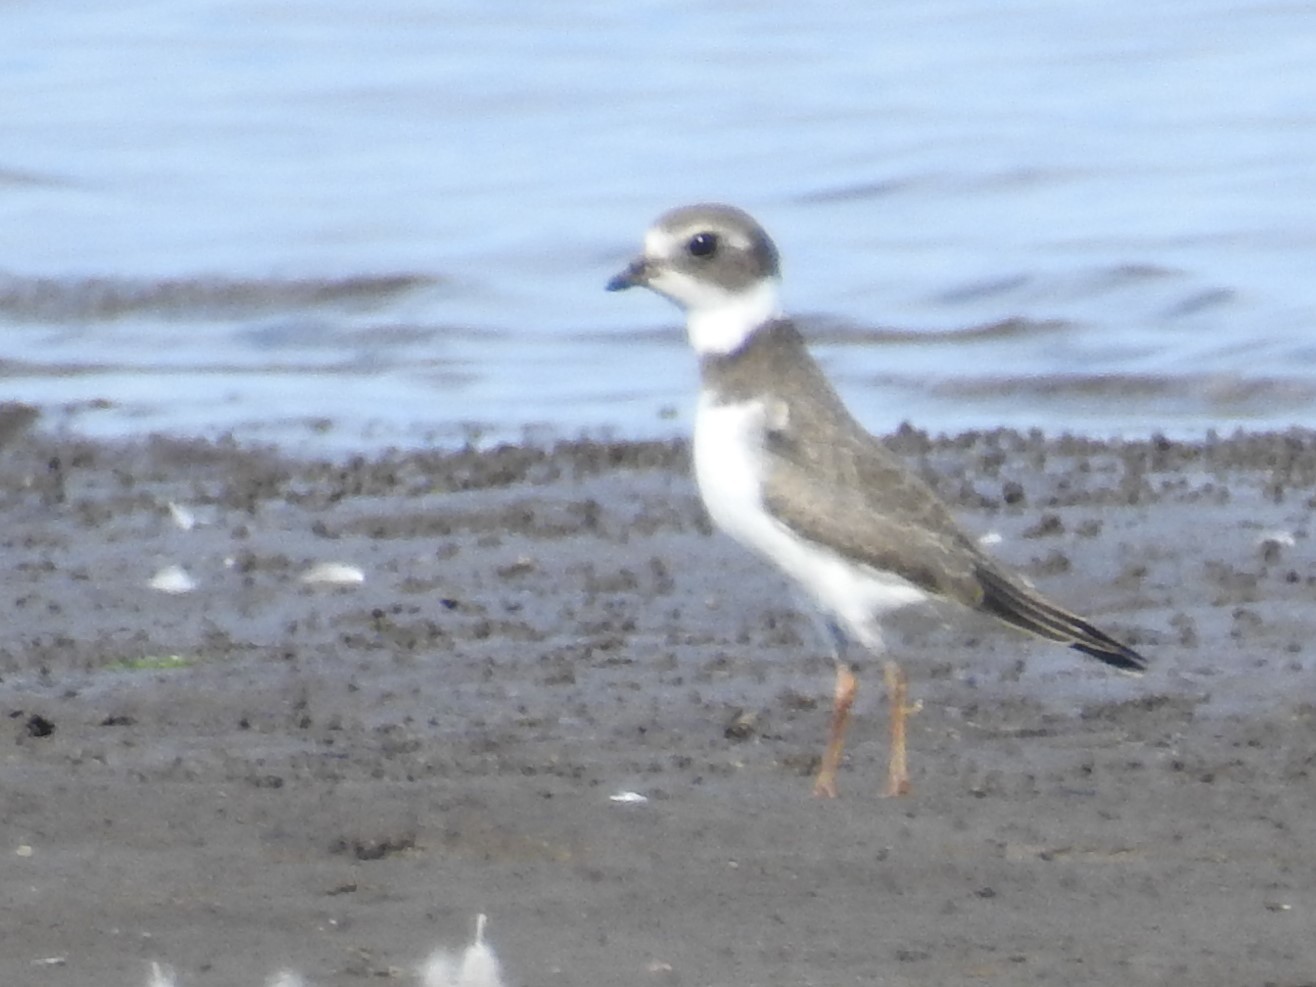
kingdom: Animalia
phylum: Chordata
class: Aves
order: Charadriiformes
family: Charadriidae
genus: Charadrius
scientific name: Charadrius semipalmatus
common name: Semipalmated plover
